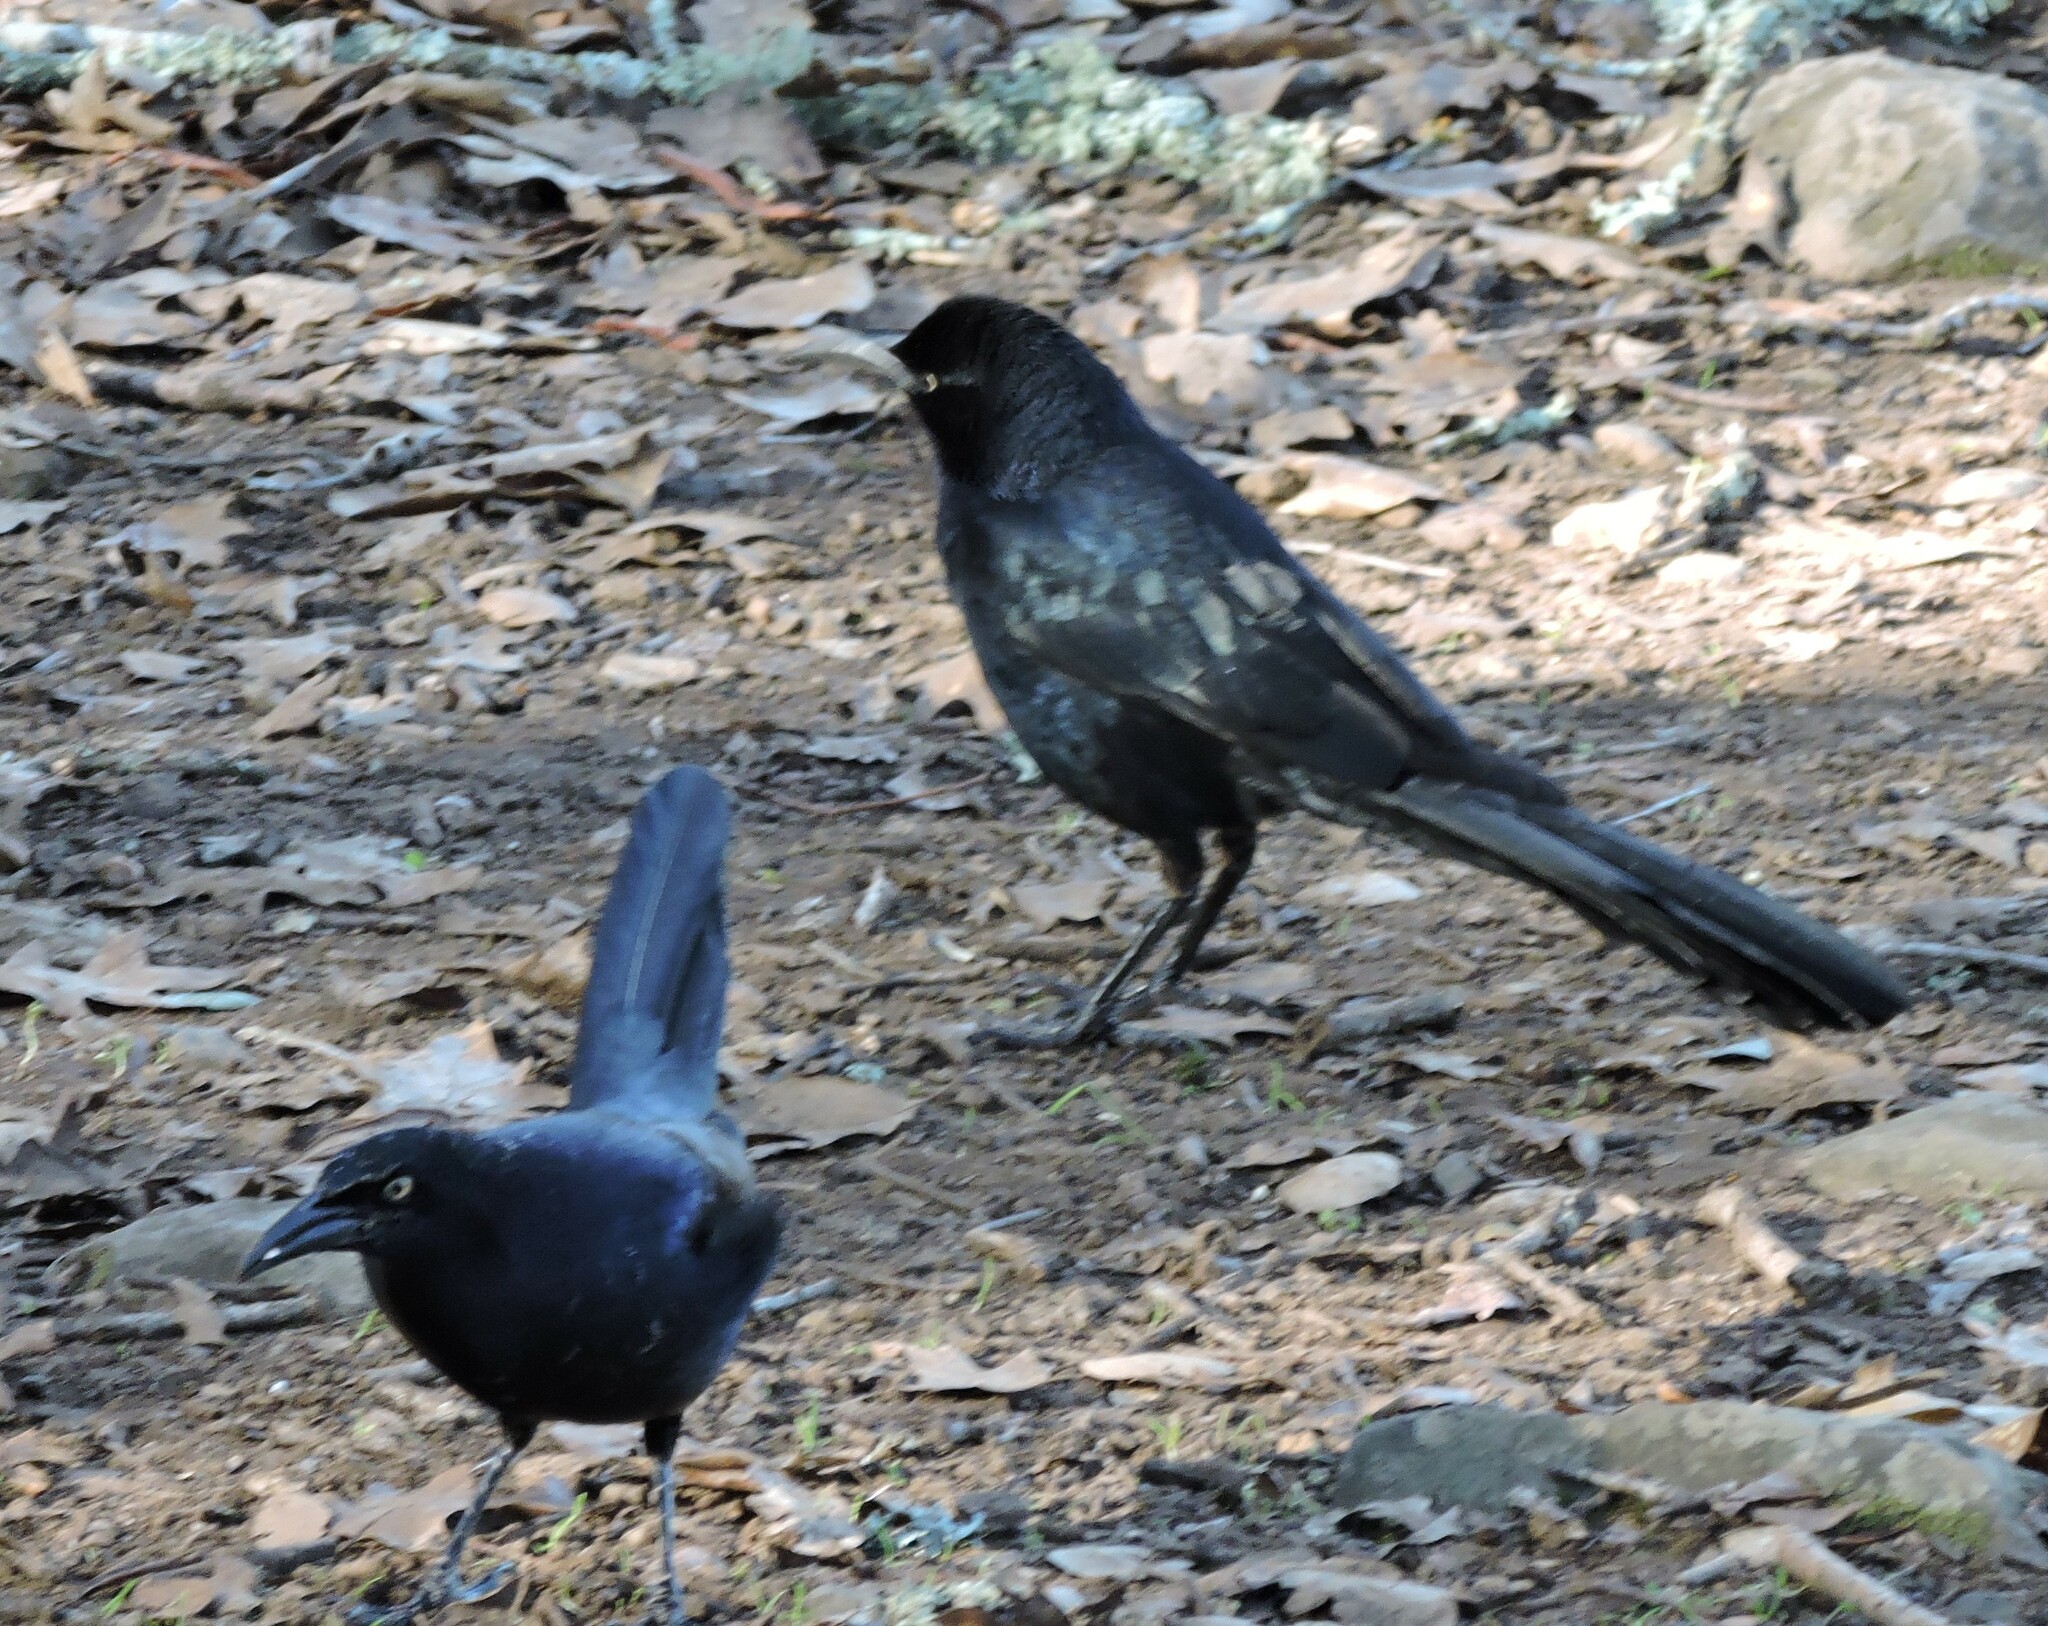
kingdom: Animalia
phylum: Chordata
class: Aves
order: Passeriformes
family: Icteridae
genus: Quiscalus
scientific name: Quiscalus mexicanus
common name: Great-tailed grackle
